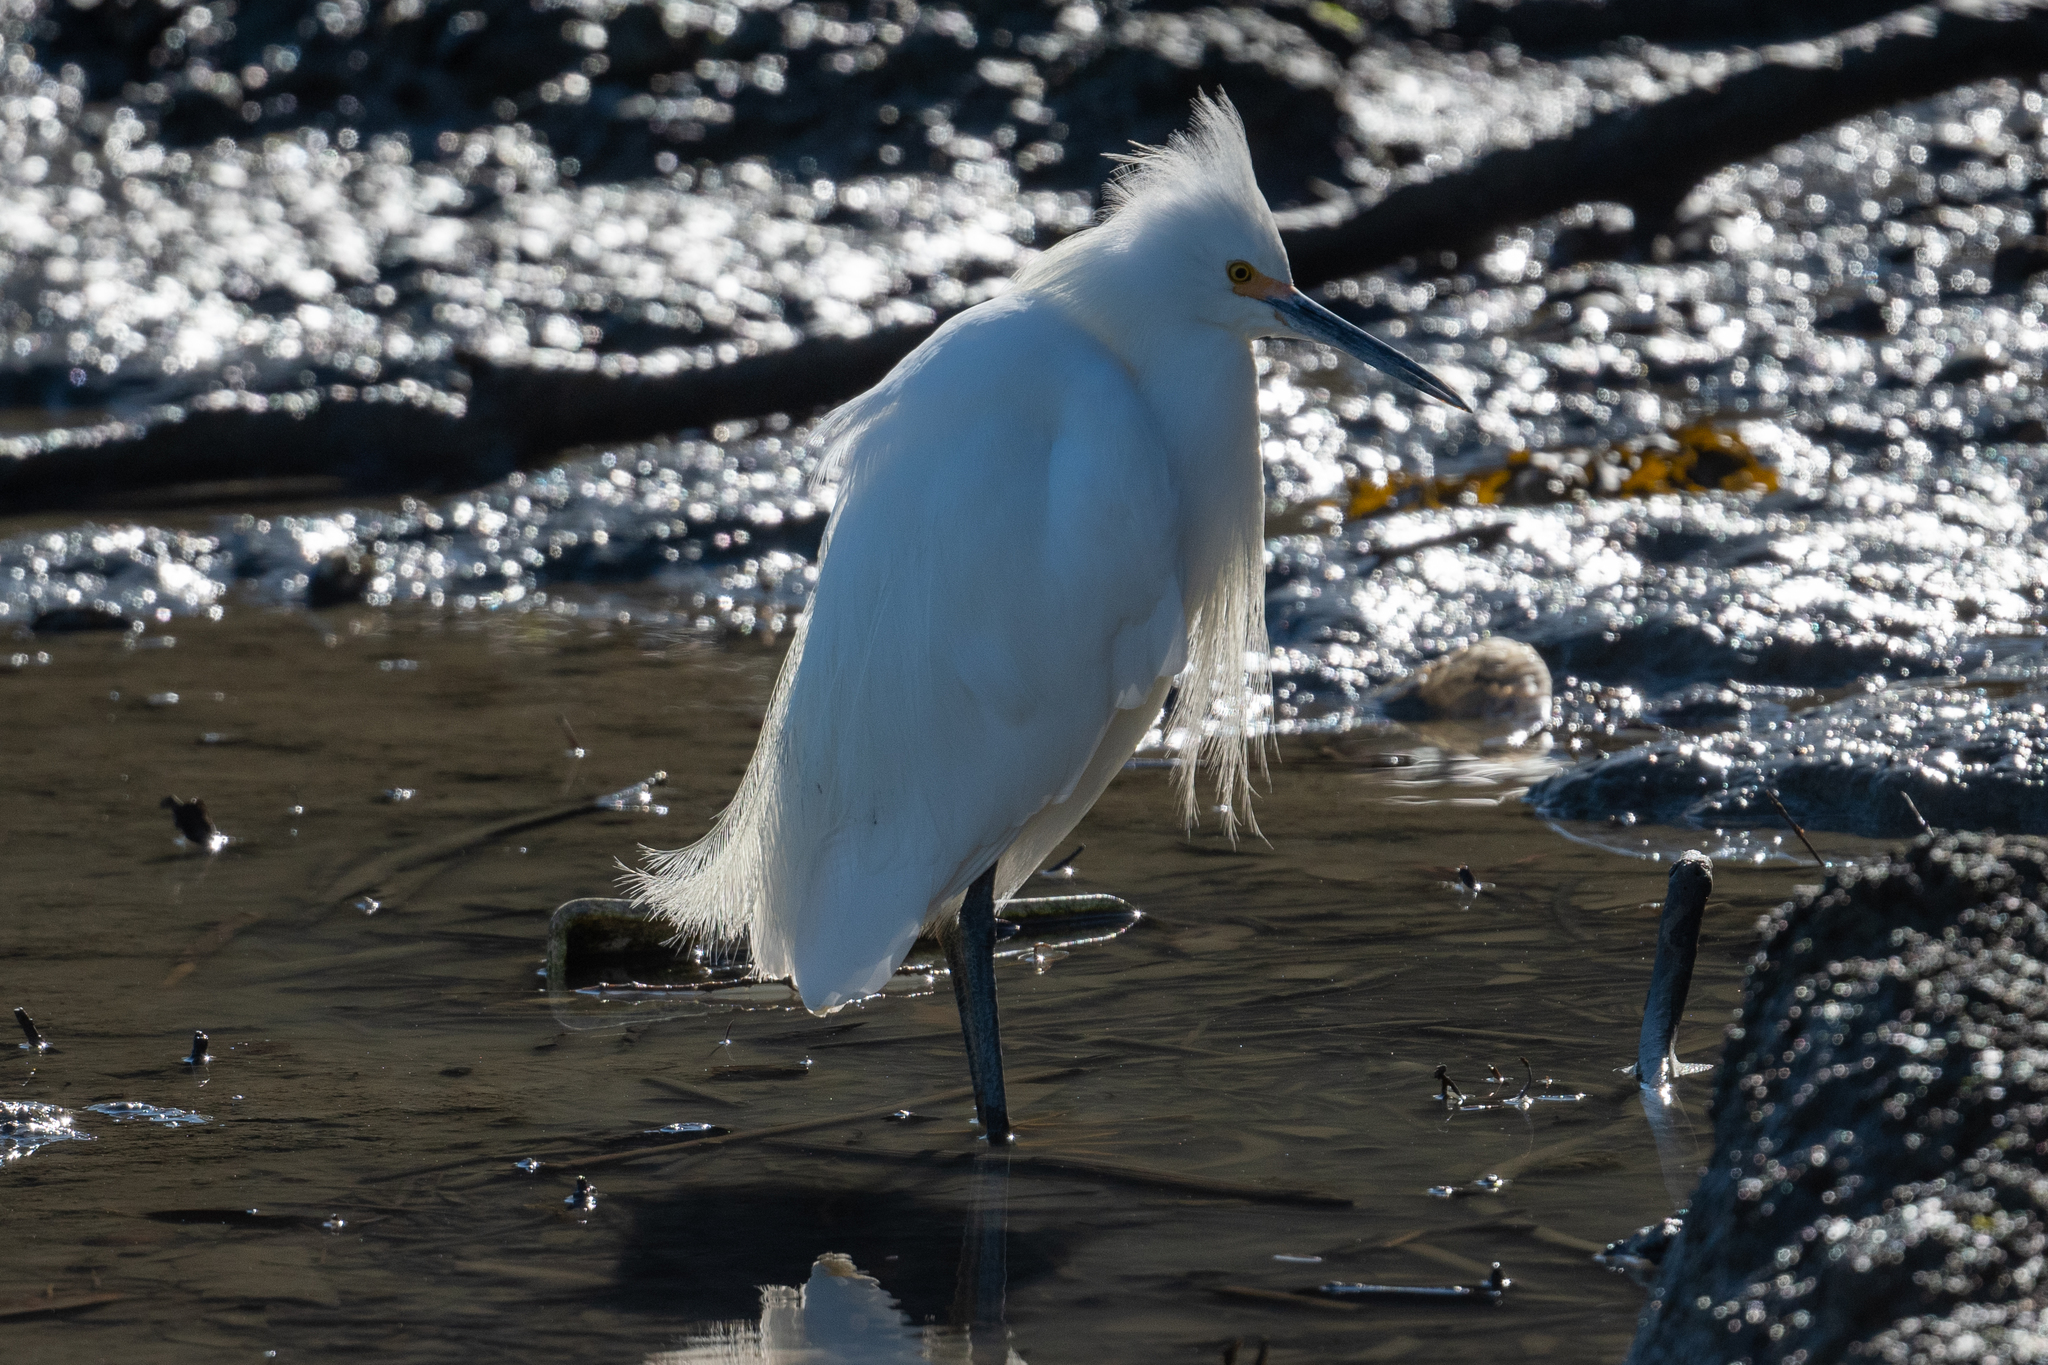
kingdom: Animalia
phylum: Chordata
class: Aves
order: Pelecaniformes
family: Ardeidae
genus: Egretta
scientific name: Egretta thula
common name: Snowy egret
